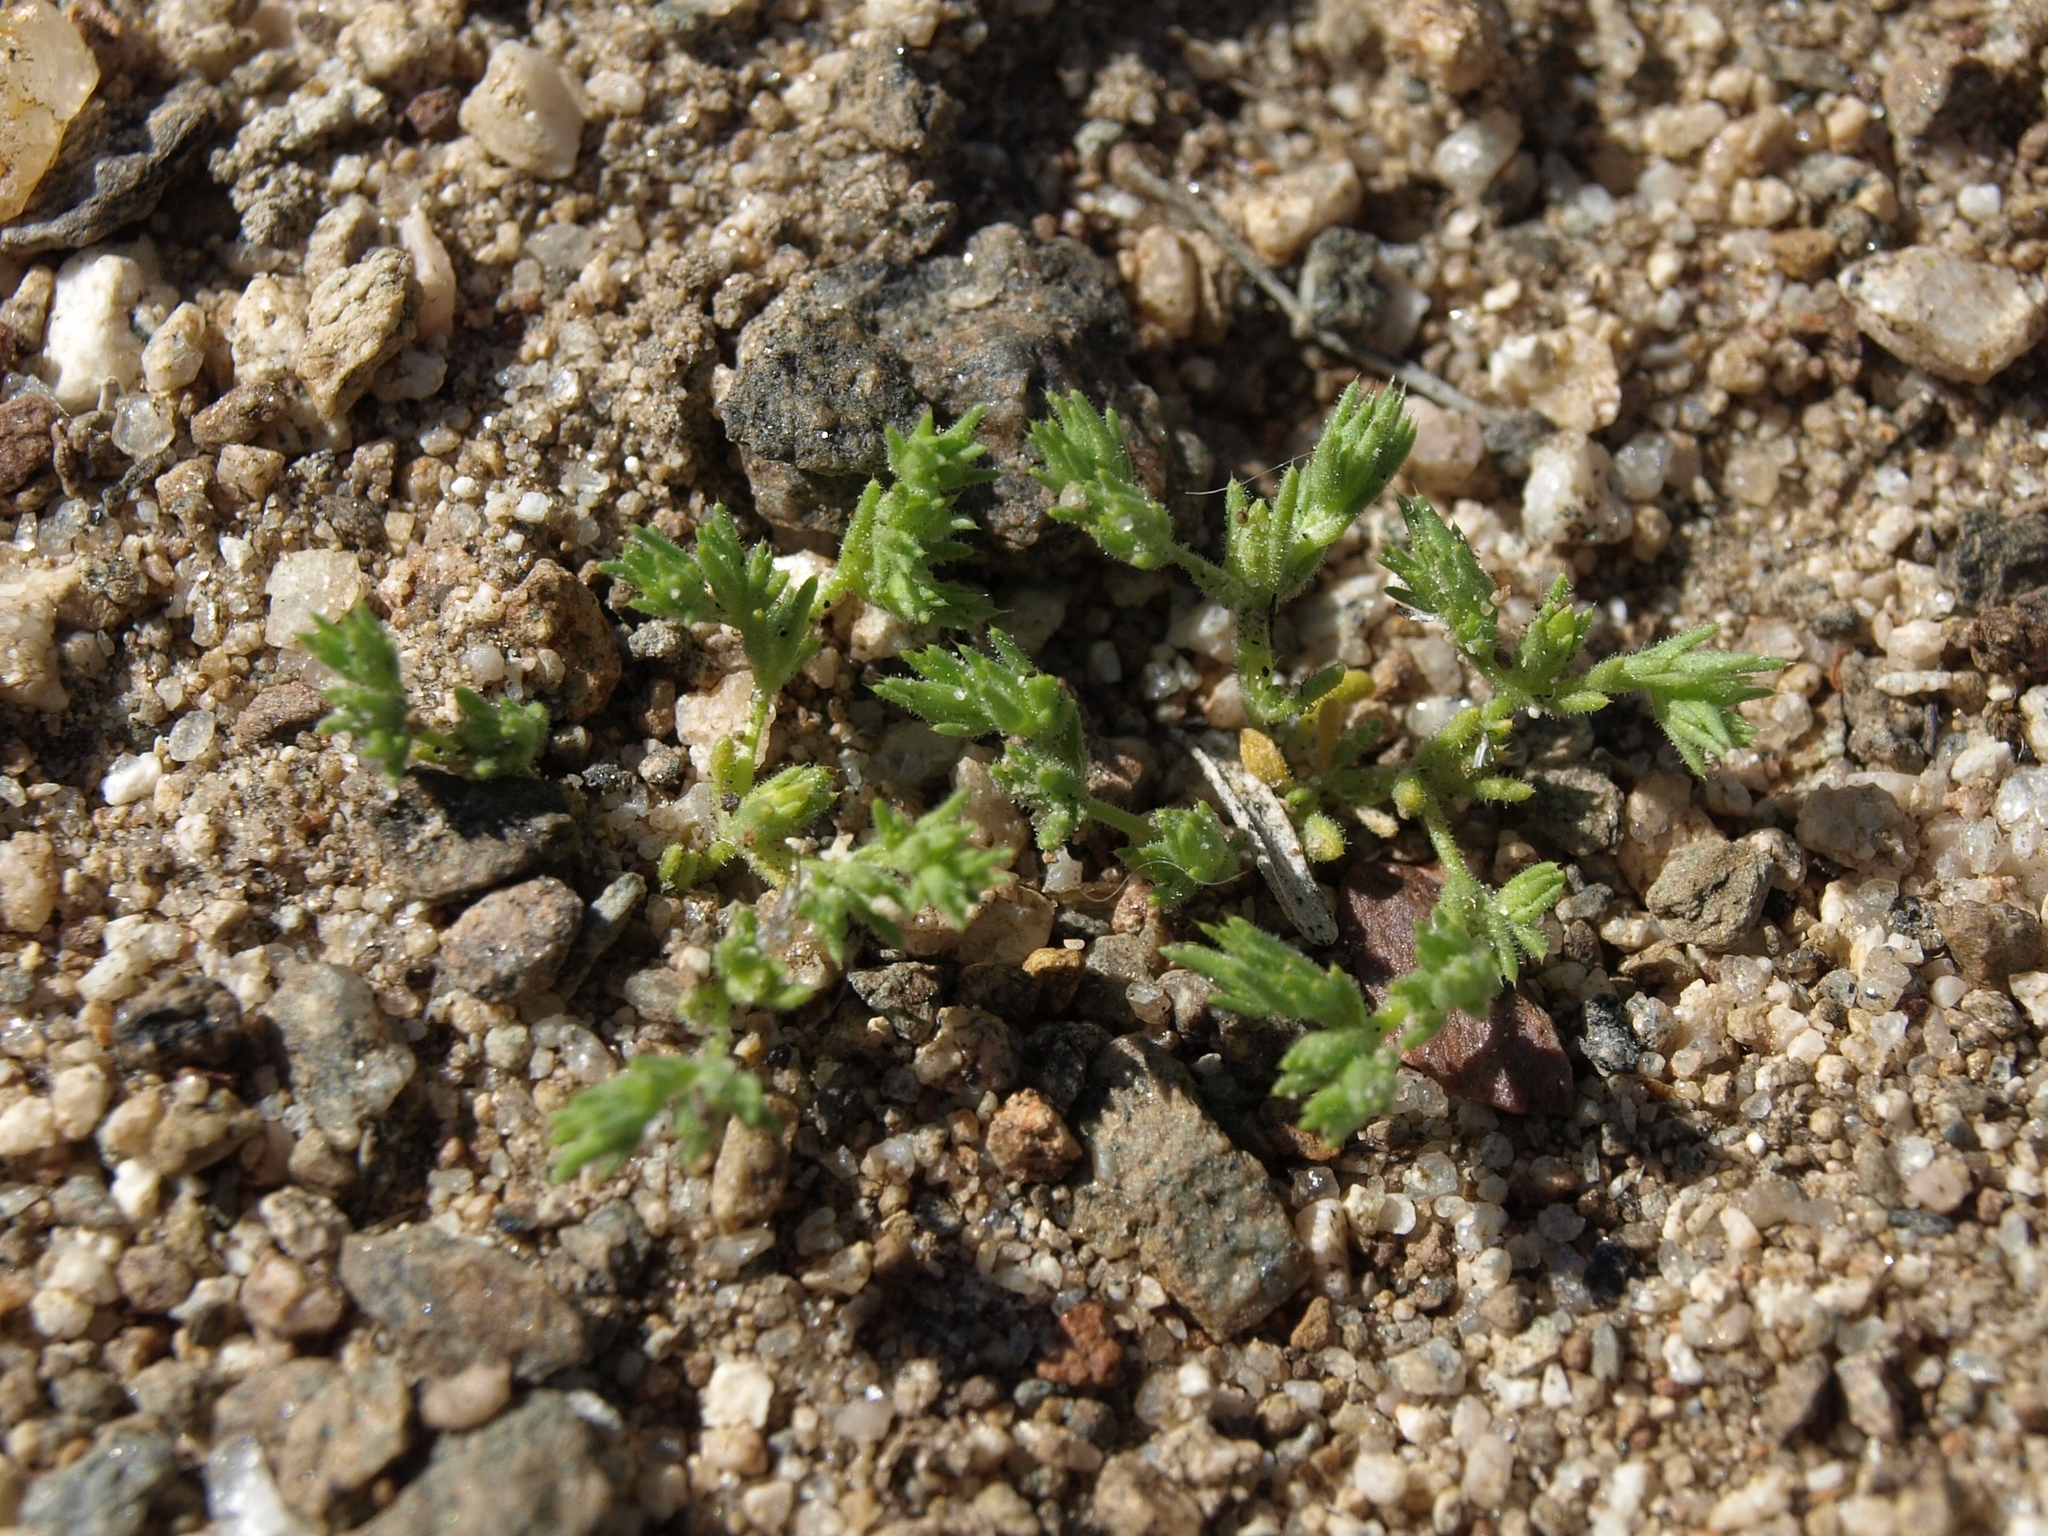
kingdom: Plantae
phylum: Tracheophyta
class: Magnoliopsida
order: Caryophyllales
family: Caryophyllaceae
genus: Loeflingia
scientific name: Loeflingia squarrosa
